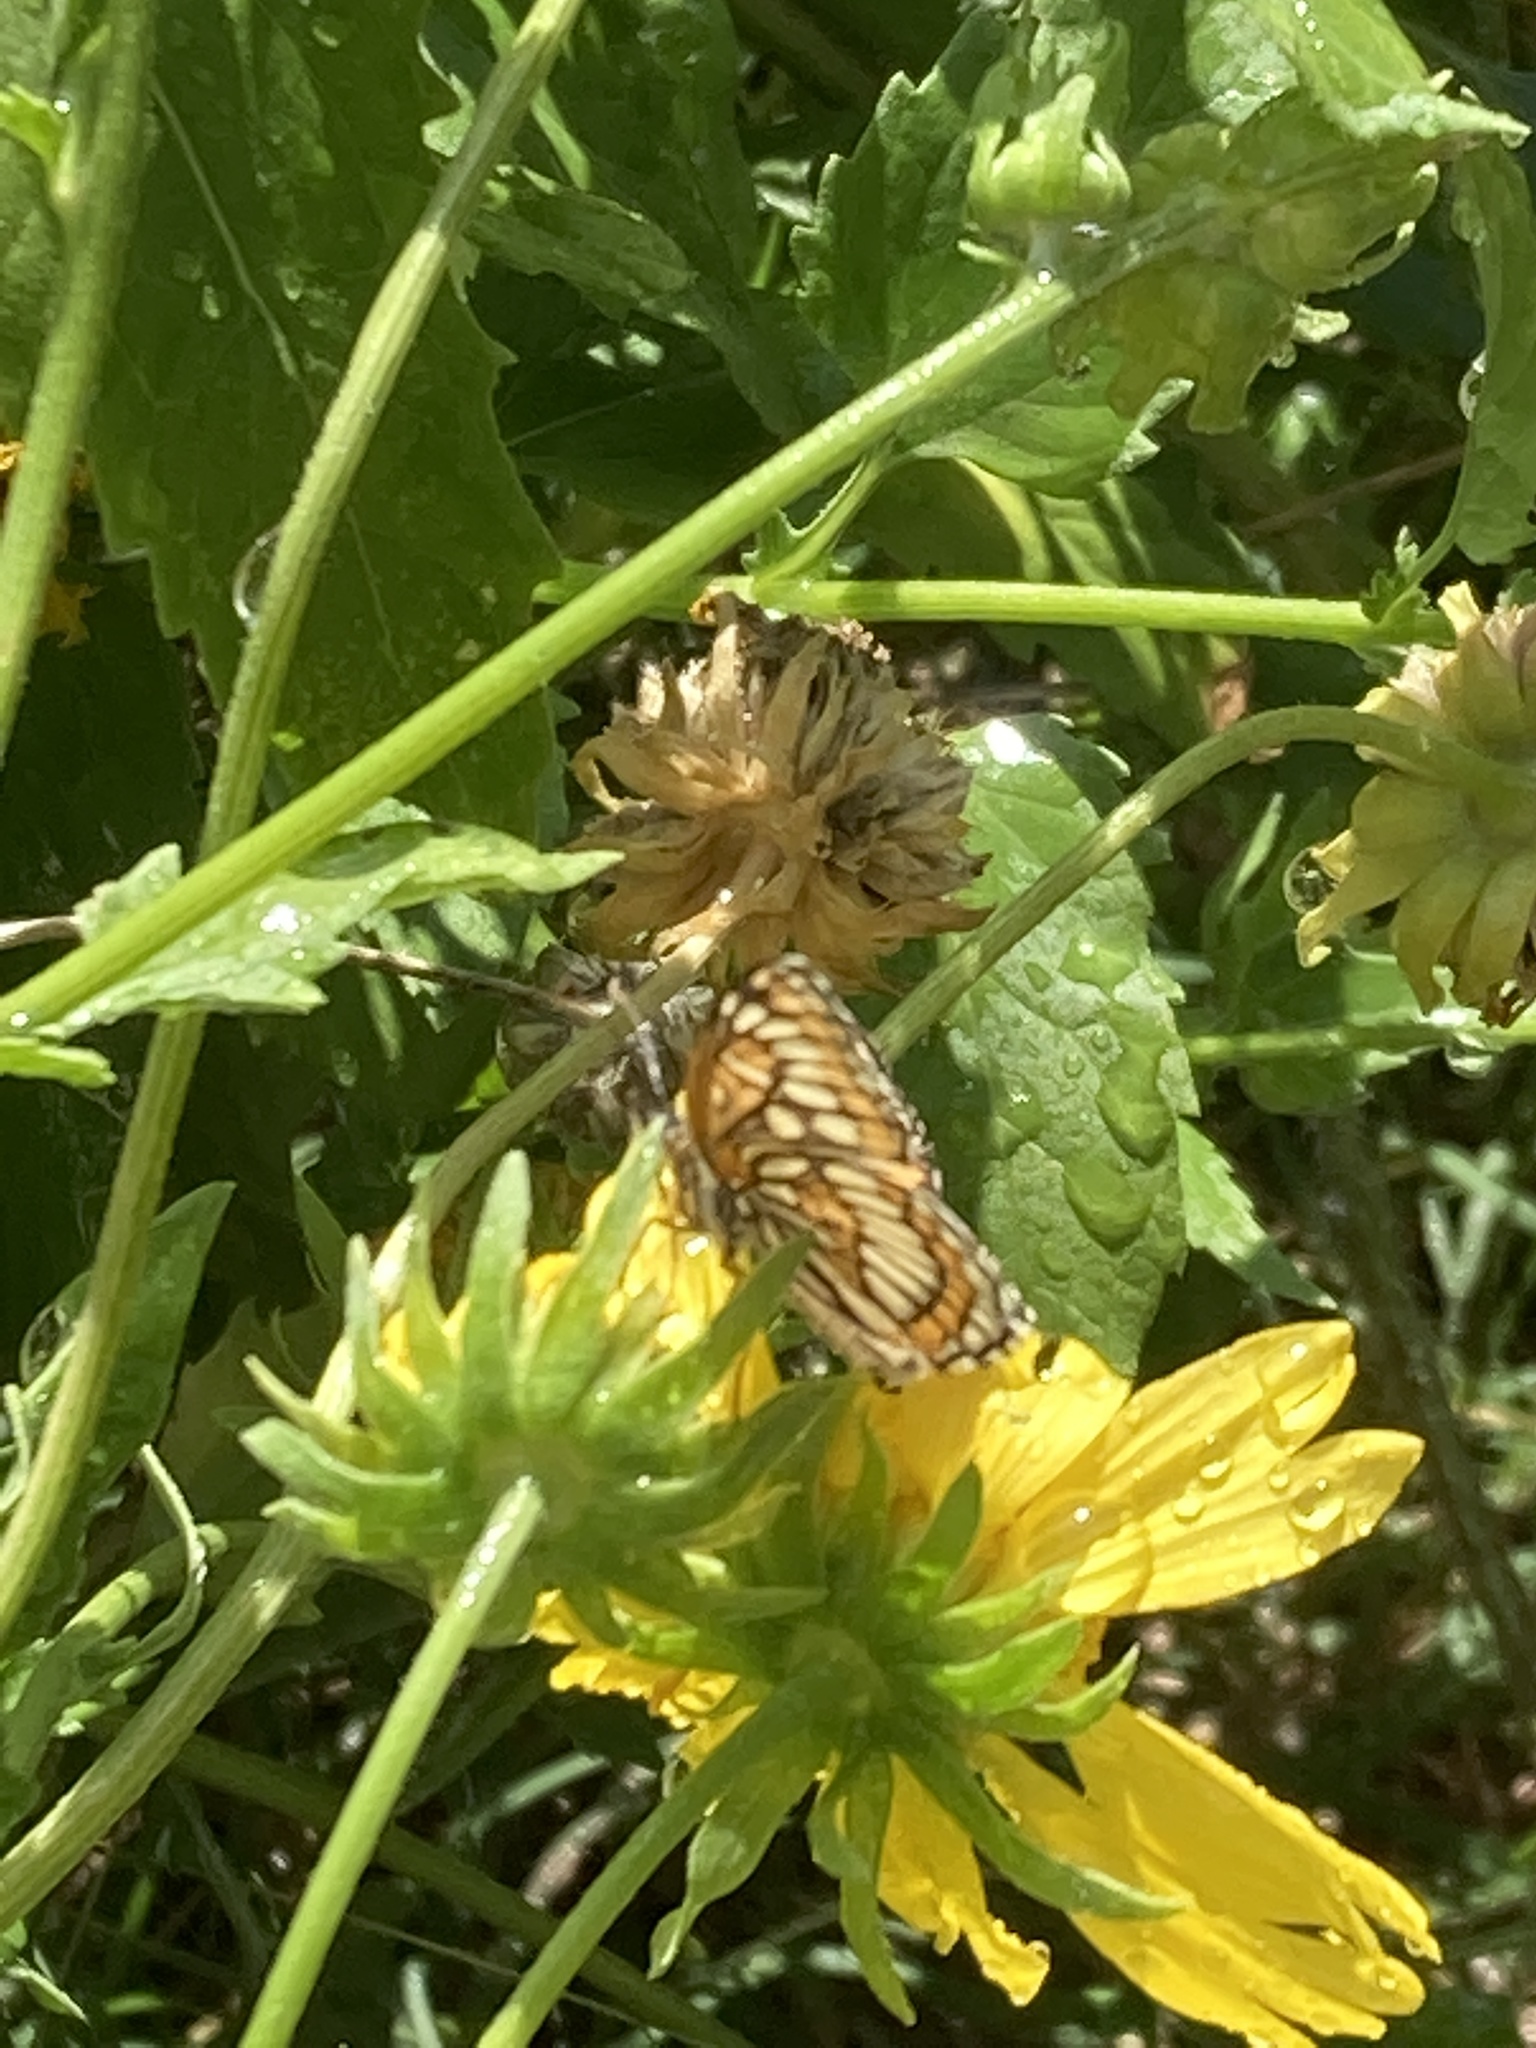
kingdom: Animalia
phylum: Arthropoda
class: Insecta
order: Lepidoptera
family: Nymphalidae
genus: Thessalia
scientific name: Thessalia theona
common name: Nymphalid moth
